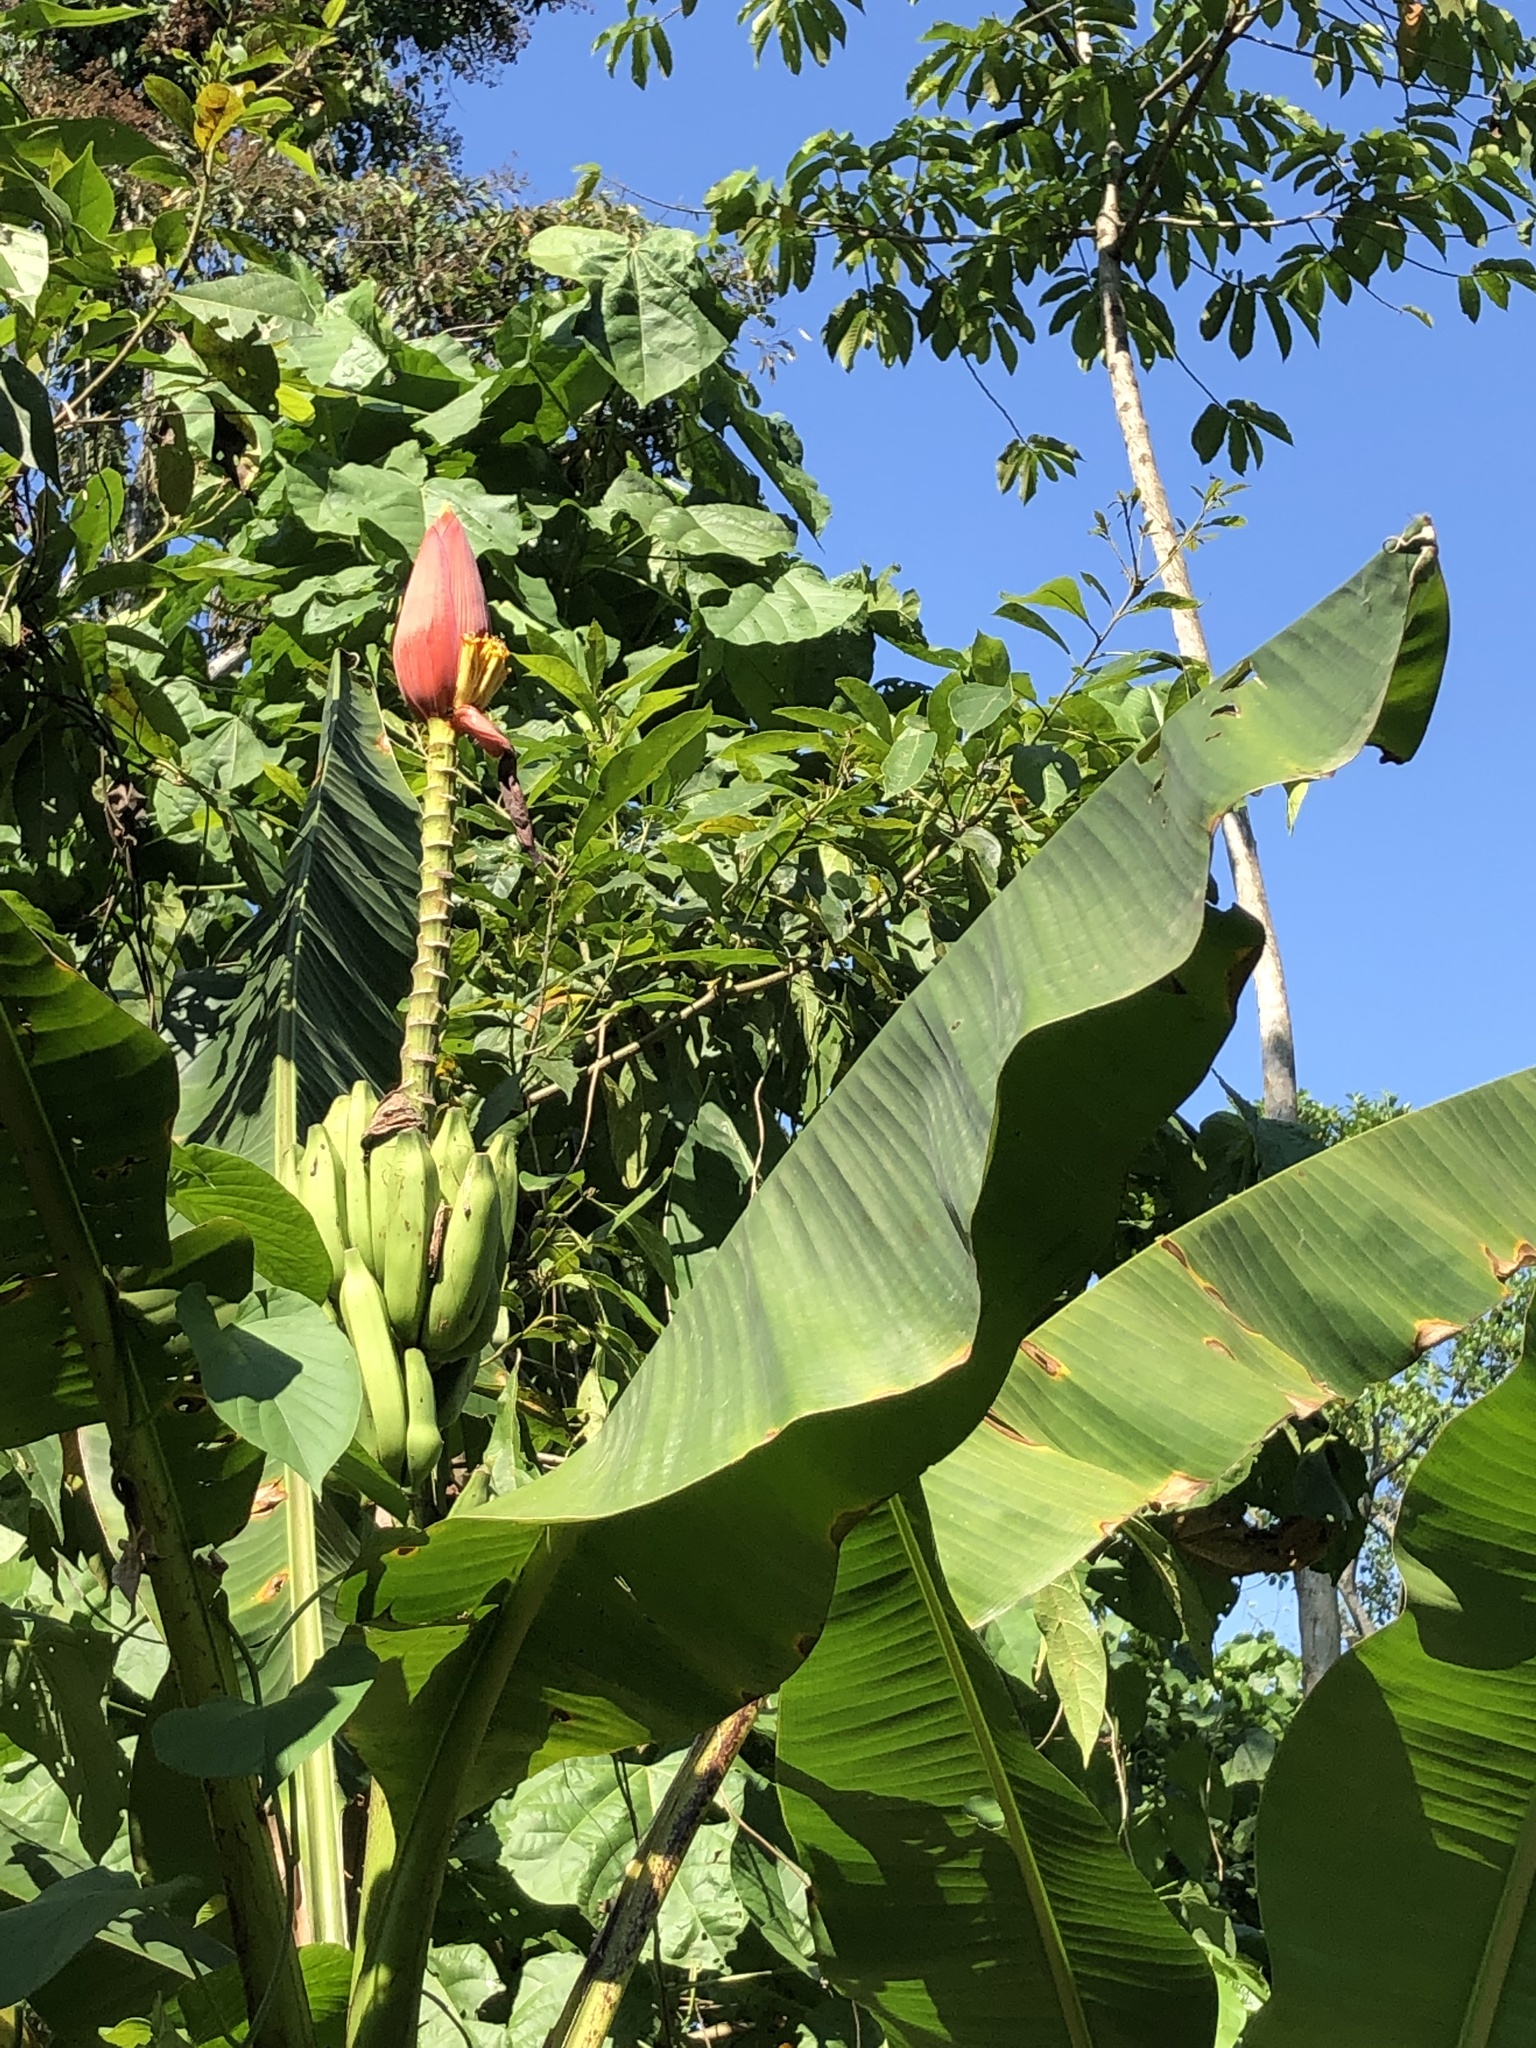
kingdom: Plantae
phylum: Tracheophyta
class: Liliopsida
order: Zingiberales
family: Musaceae
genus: Musa
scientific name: Musa rubra
